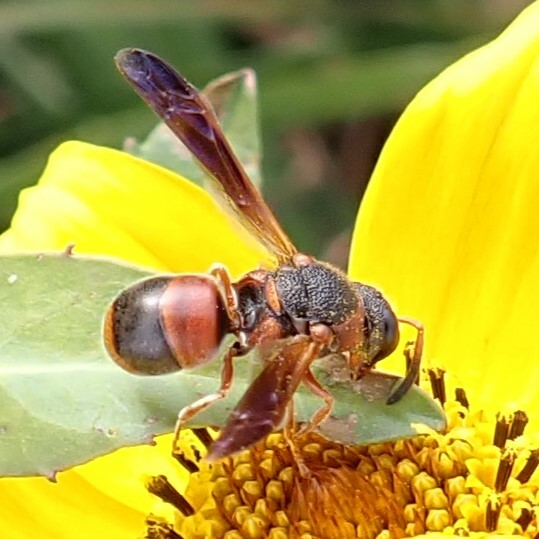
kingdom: Animalia
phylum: Arthropoda
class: Insecta
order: Hymenoptera
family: Eumenidae
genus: Pachodynerus
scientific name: Pachodynerus erynnis
